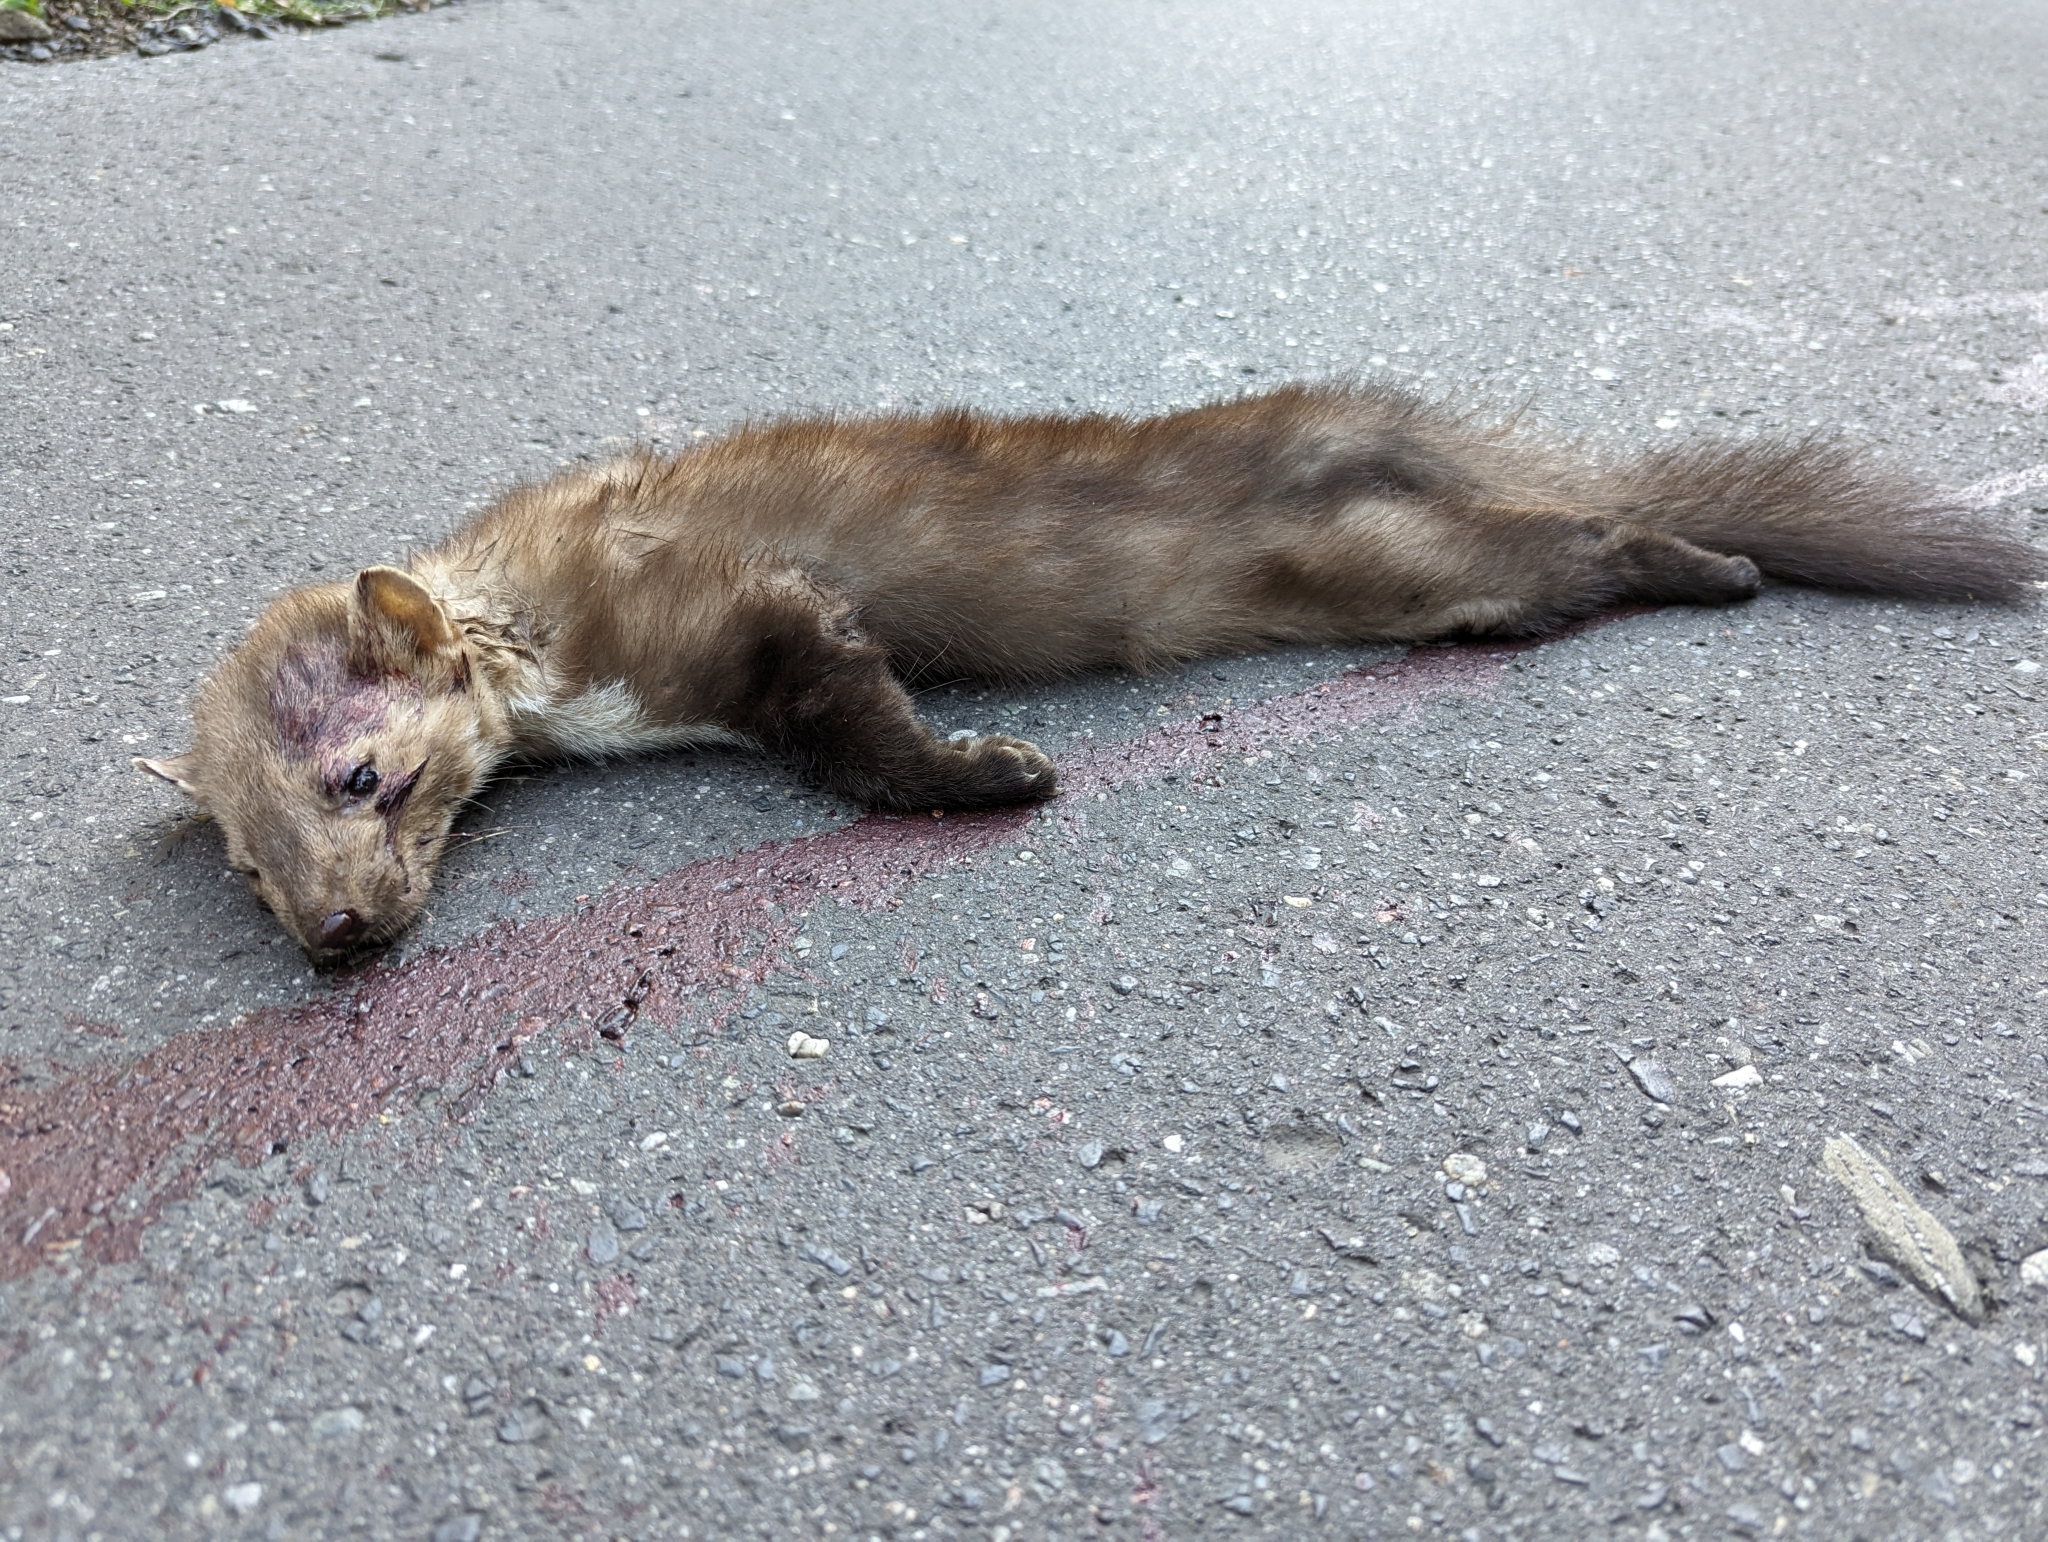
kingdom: Animalia
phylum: Chordata
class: Mammalia
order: Carnivora
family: Mustelidae
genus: Martes
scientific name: Martes foina
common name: Beech marten
